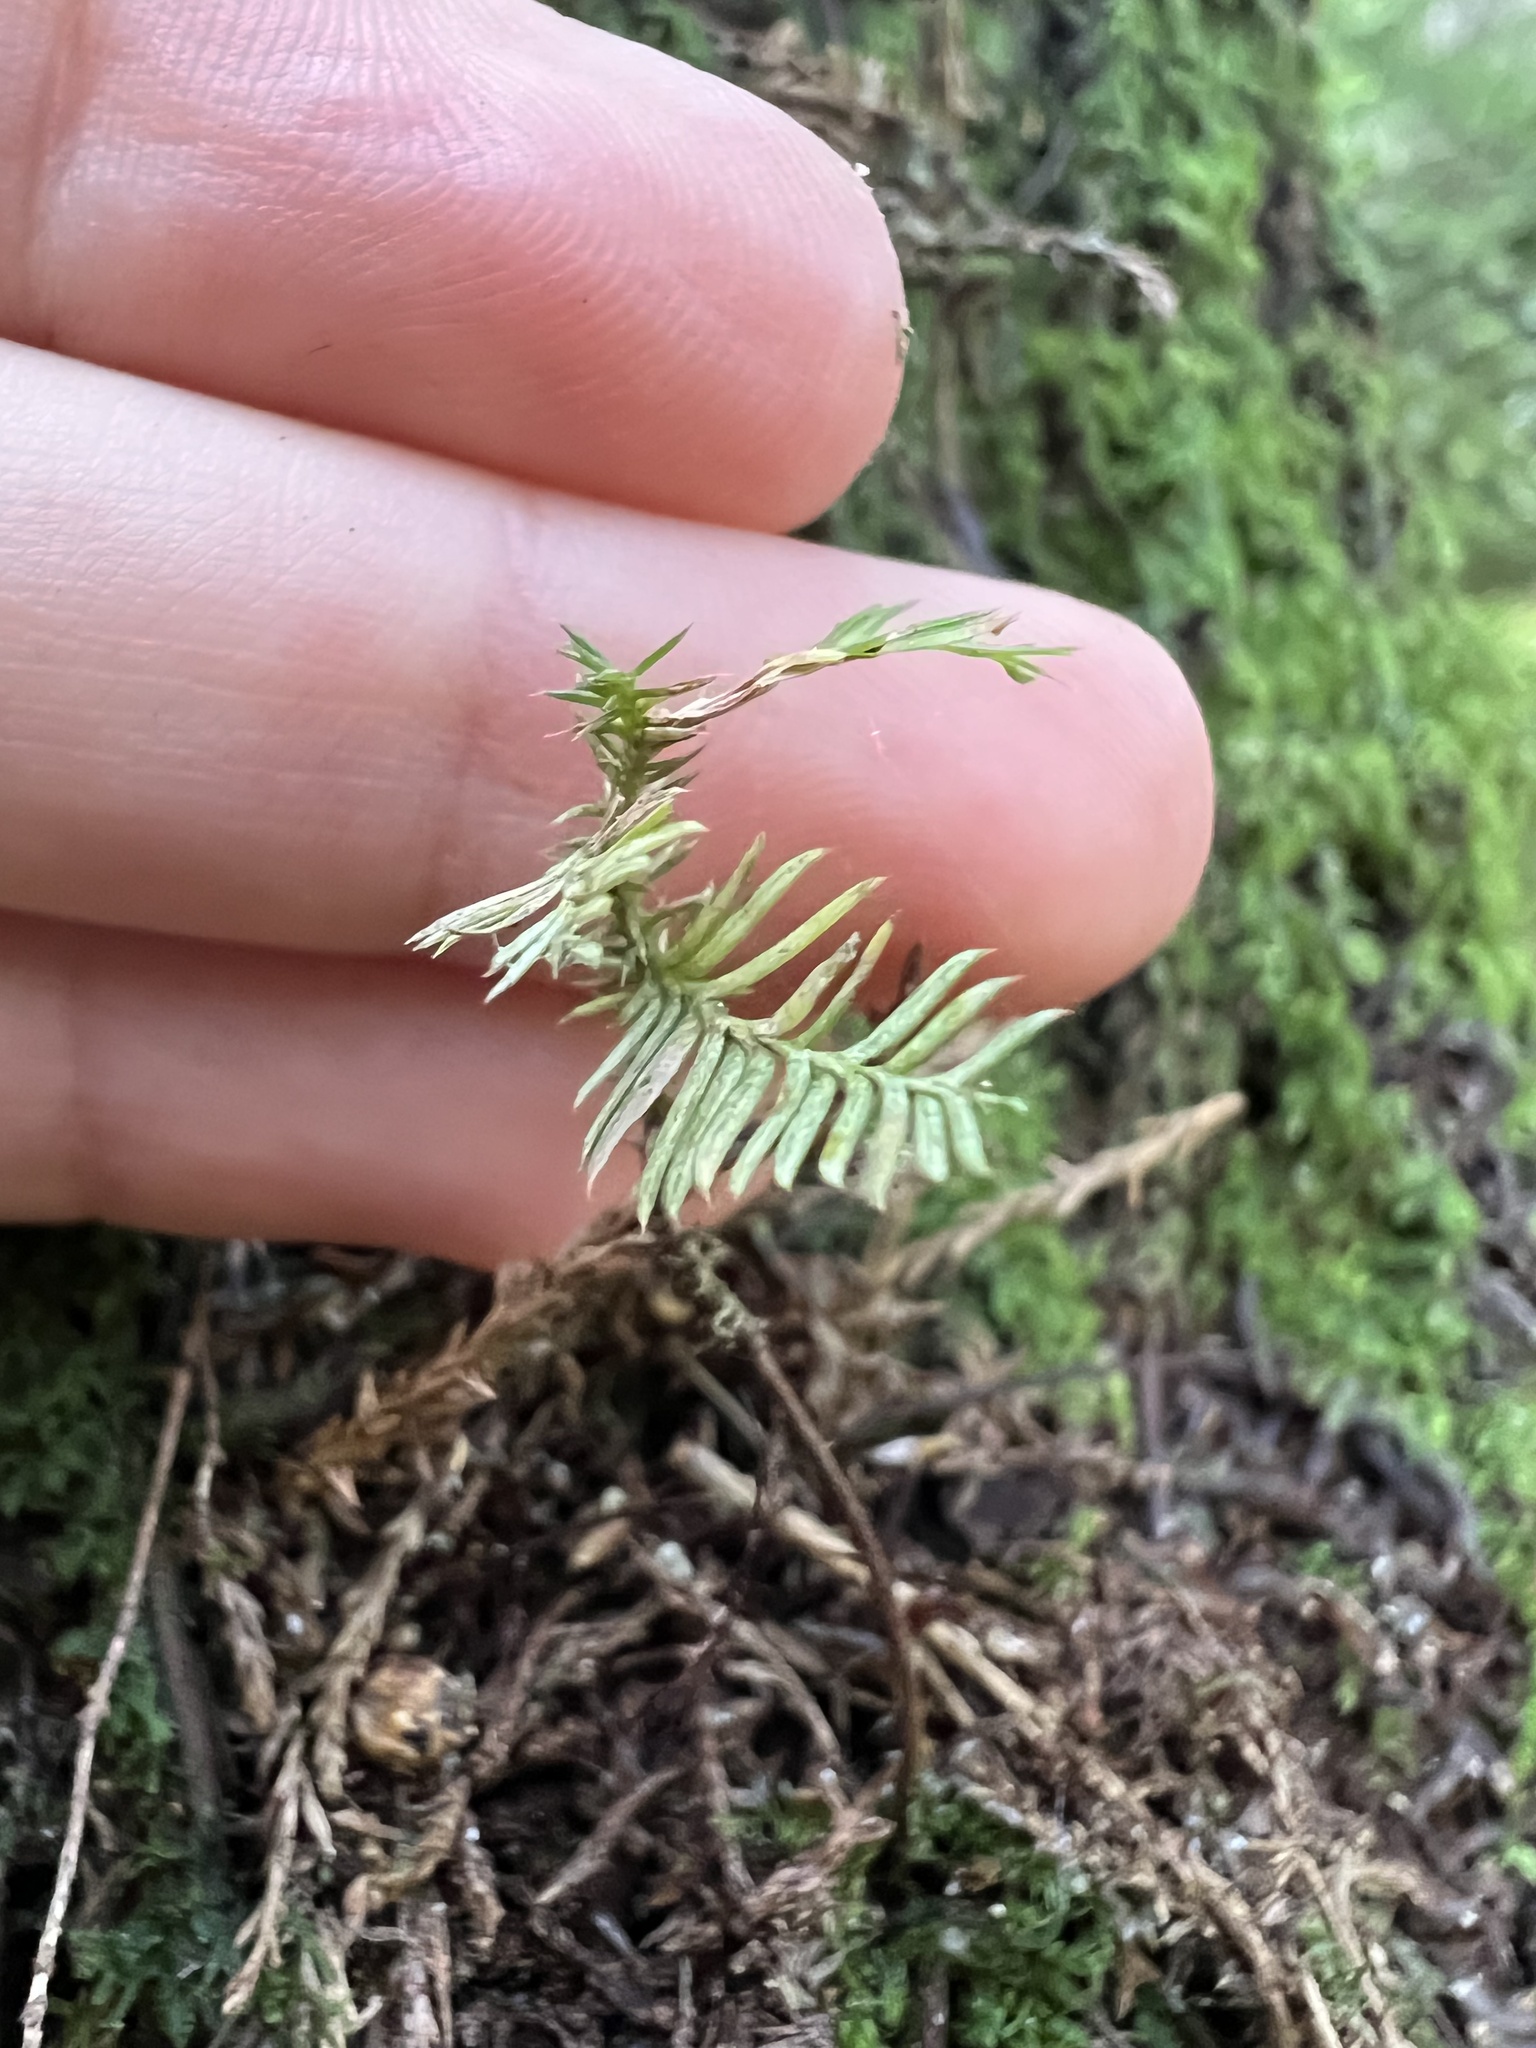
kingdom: Plantae
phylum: Tracheophyta
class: Pinopsida
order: Pinales
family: Podocarpaceae
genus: Dacrycarpus
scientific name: Dacrycarpus dacrydioides
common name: White pine
